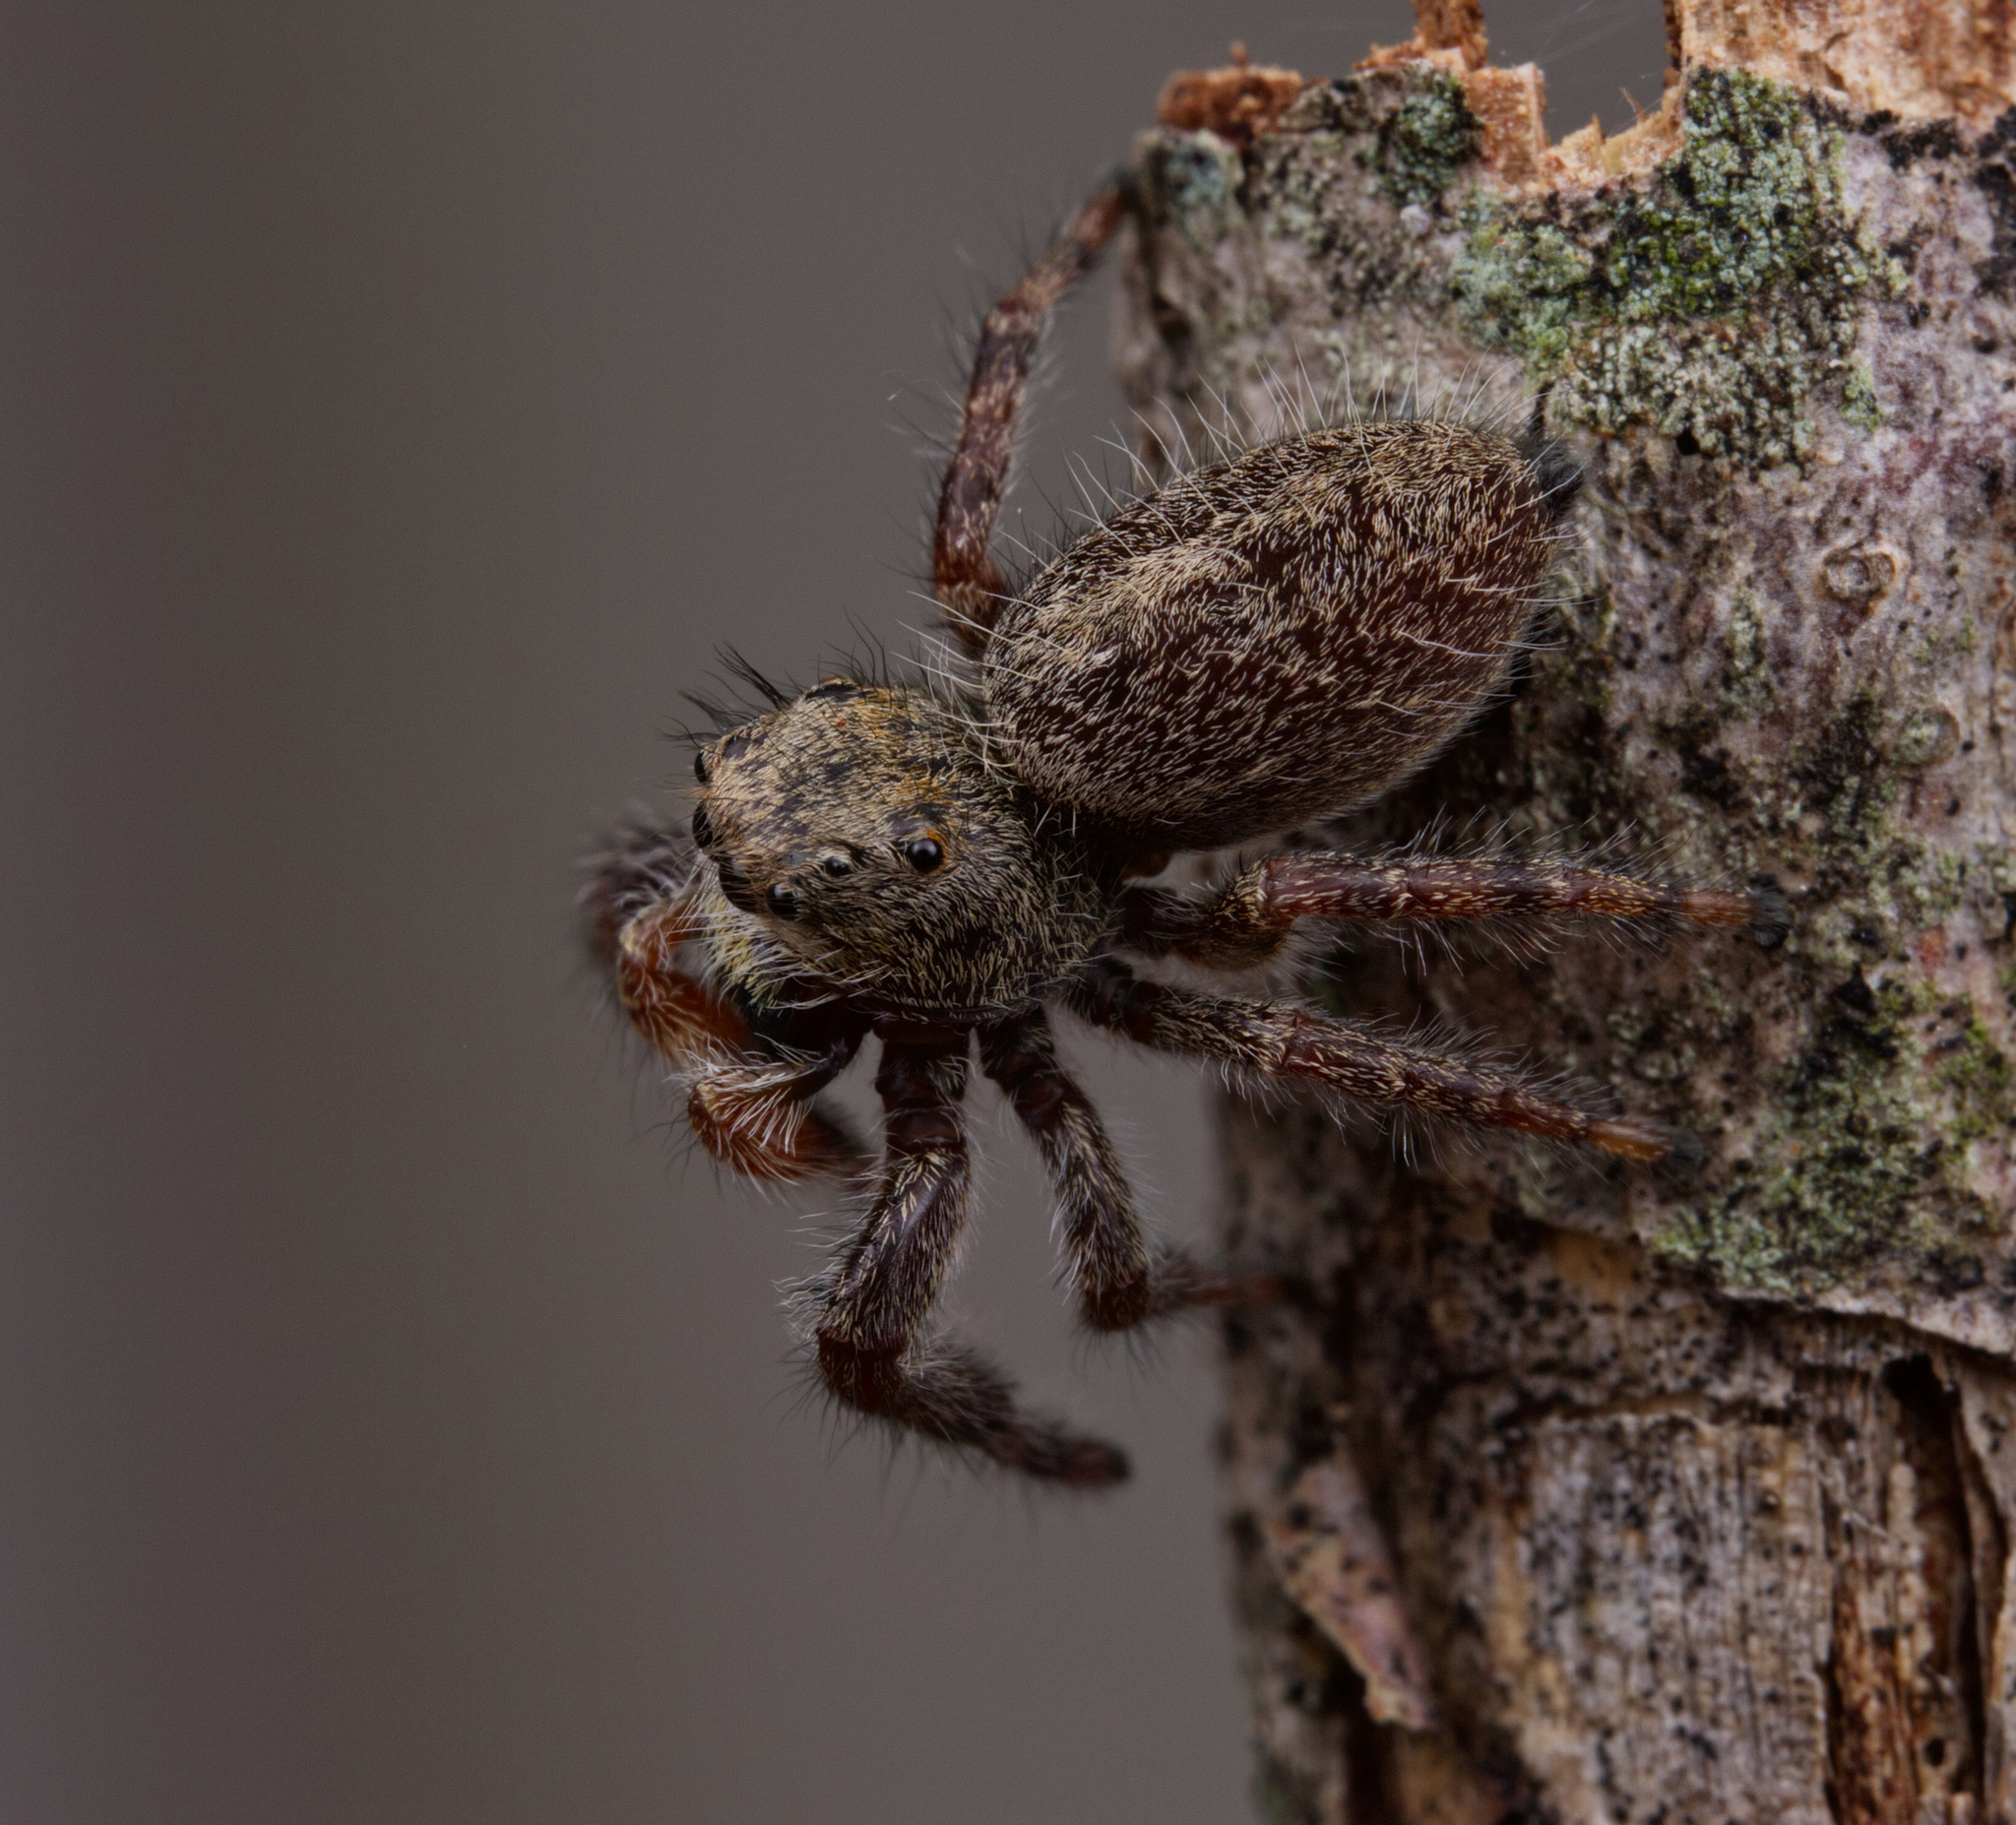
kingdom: Animalia
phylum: Arthropoda
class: Arachnida
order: Araneae
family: Salticidae
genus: Phidippus
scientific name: Phidippus princeps
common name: Grayish jumping spider
